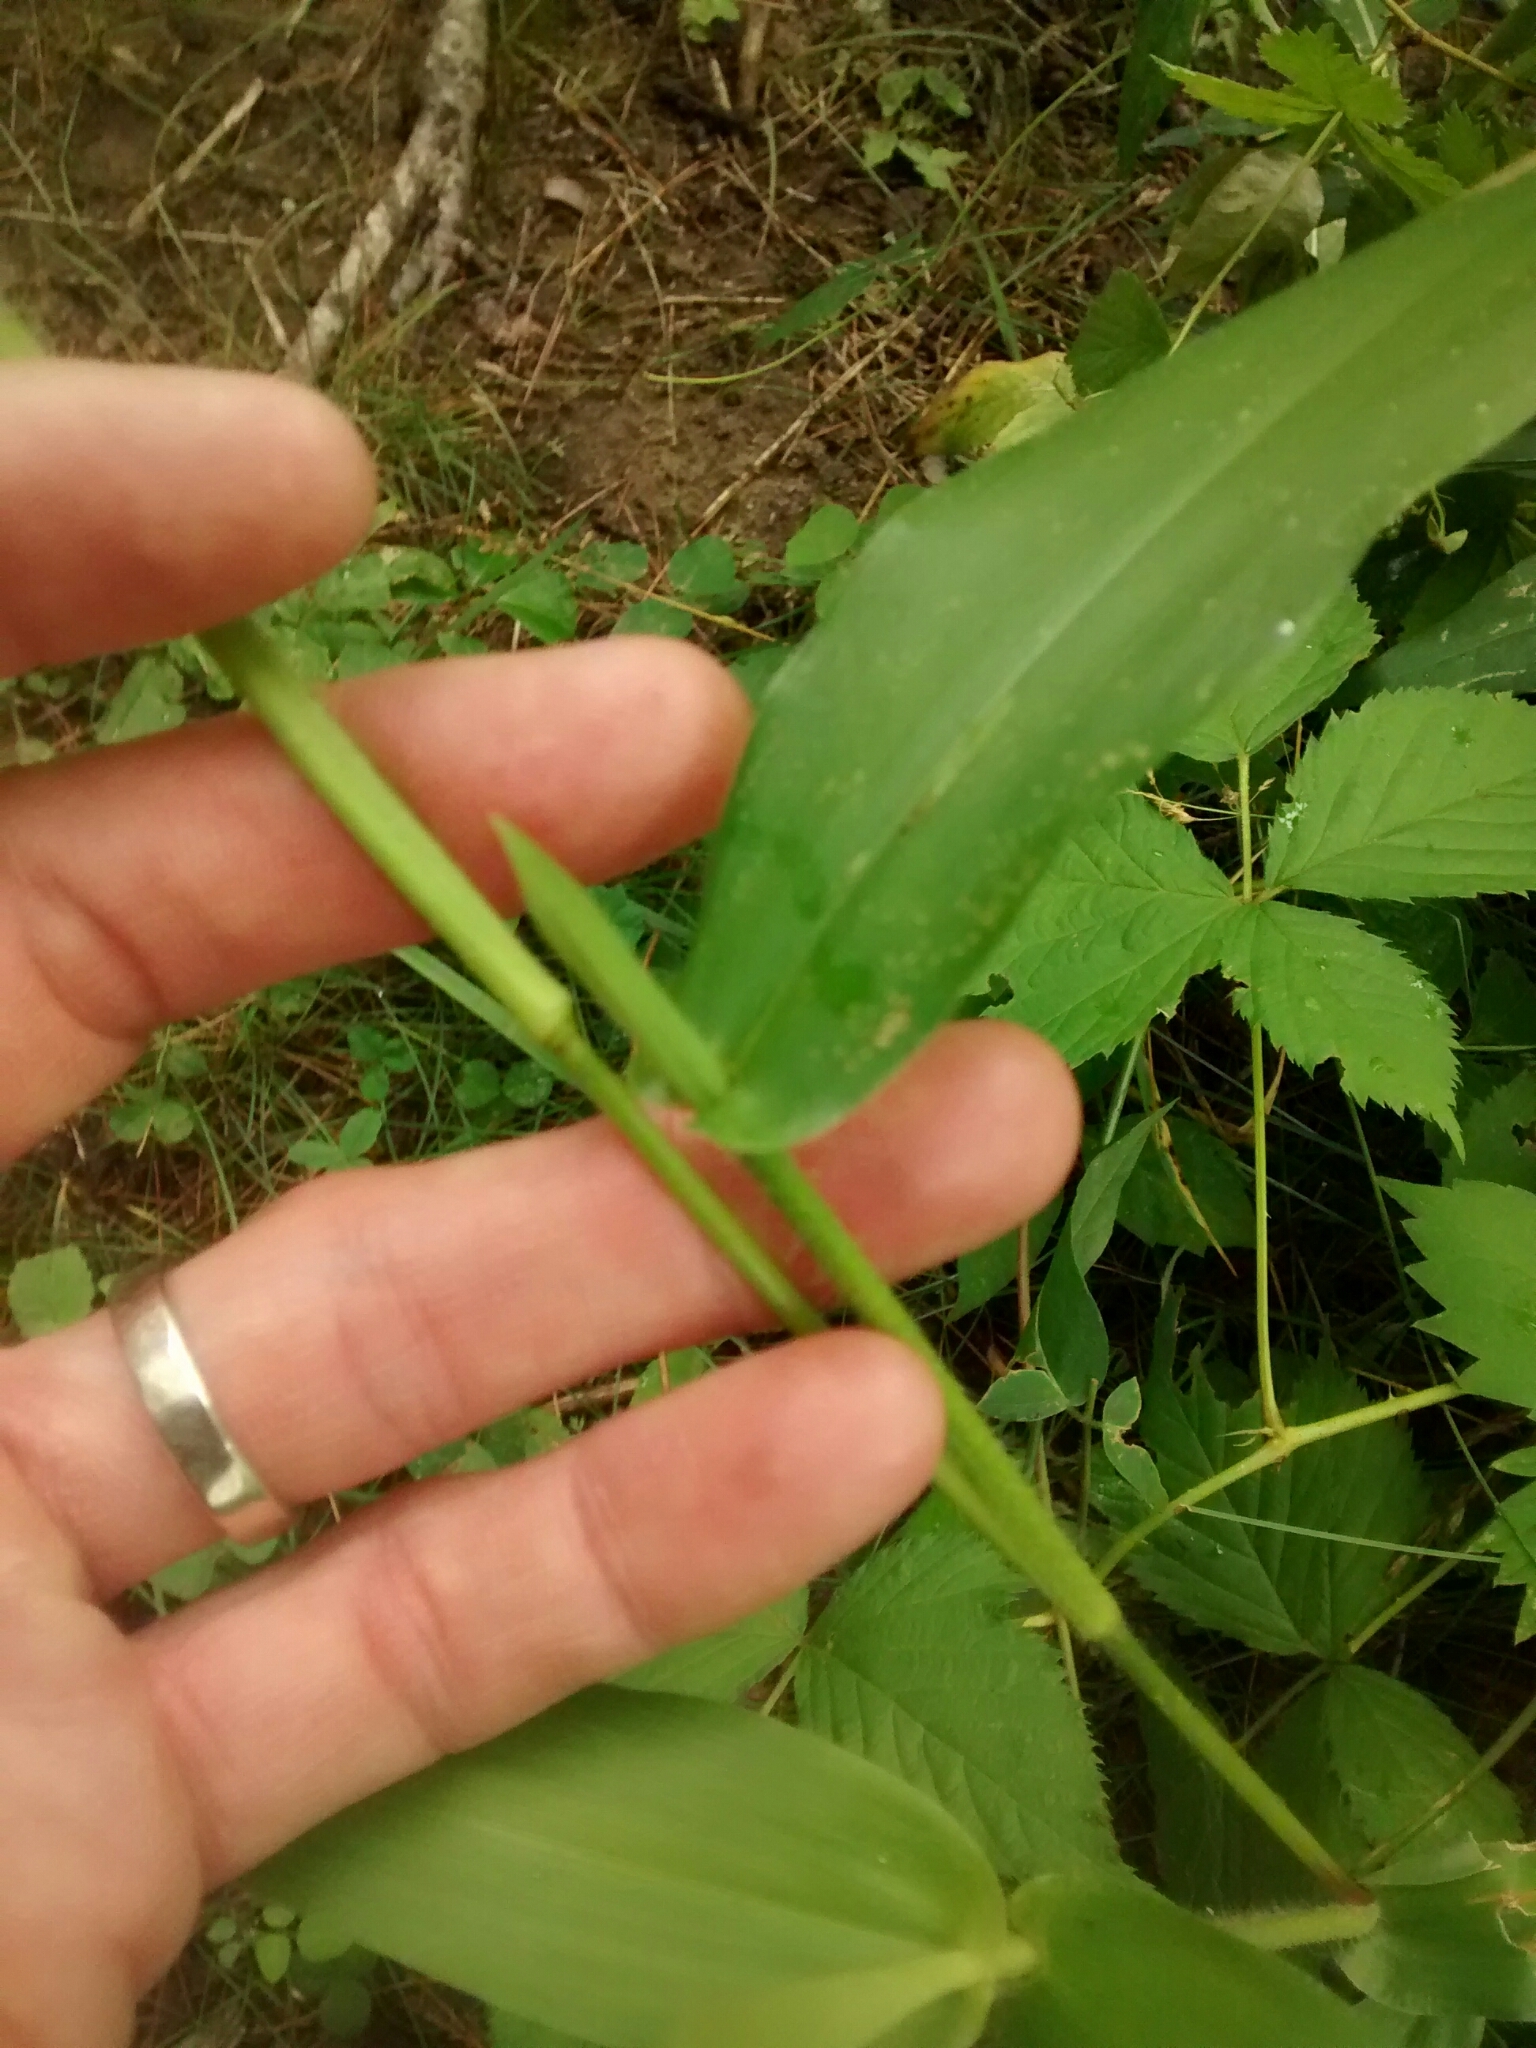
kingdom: Plantae
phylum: Tracheophyta
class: Liliopsida
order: Poales
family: Poaceae
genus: Dichanthelium
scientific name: Dichanthelium clandestinum
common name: Deer-tongue grass
